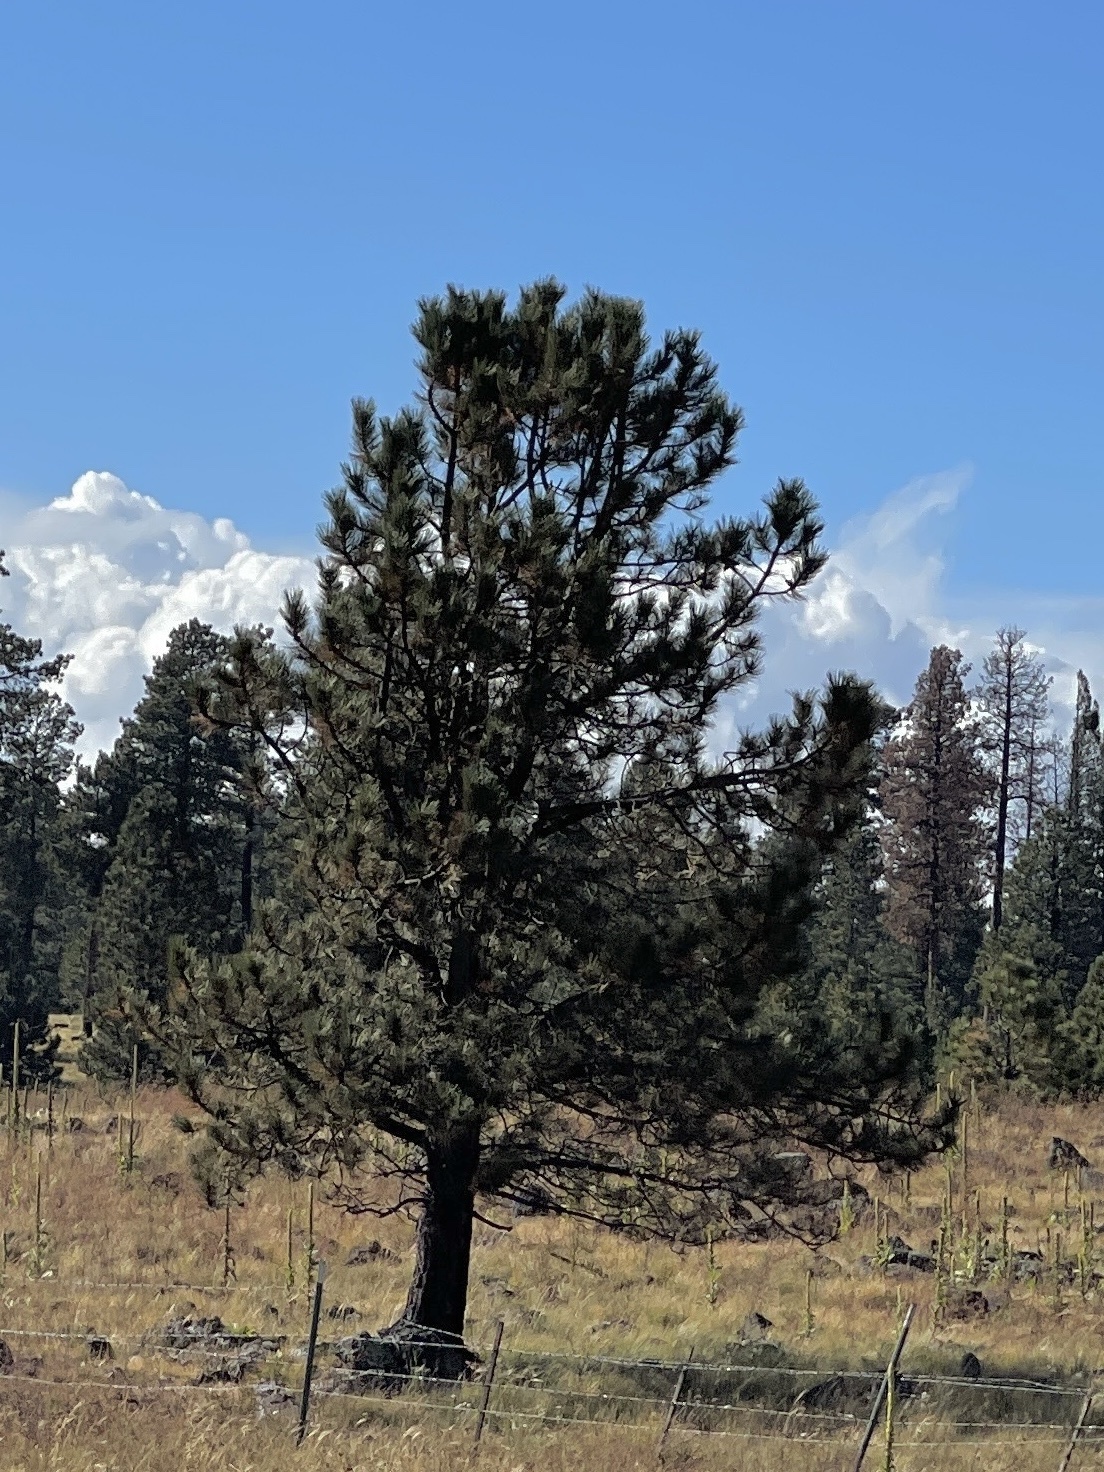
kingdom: Plantae
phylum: Tracheophyta
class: Pinopsida
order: Pinales
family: Pinaceae
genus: Pinus
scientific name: Pinus ponderosa
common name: Western yellow-pine
